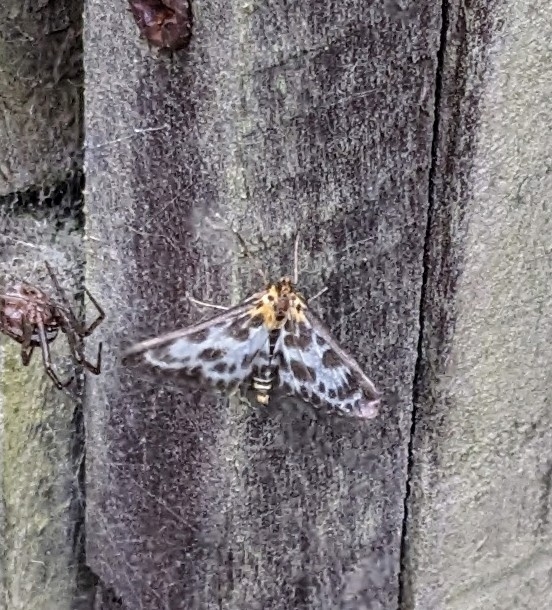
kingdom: Animalia
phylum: Arthropoda
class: Insecta
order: Lepidoptera
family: Crambidae
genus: Anania
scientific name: Anania hortulata
